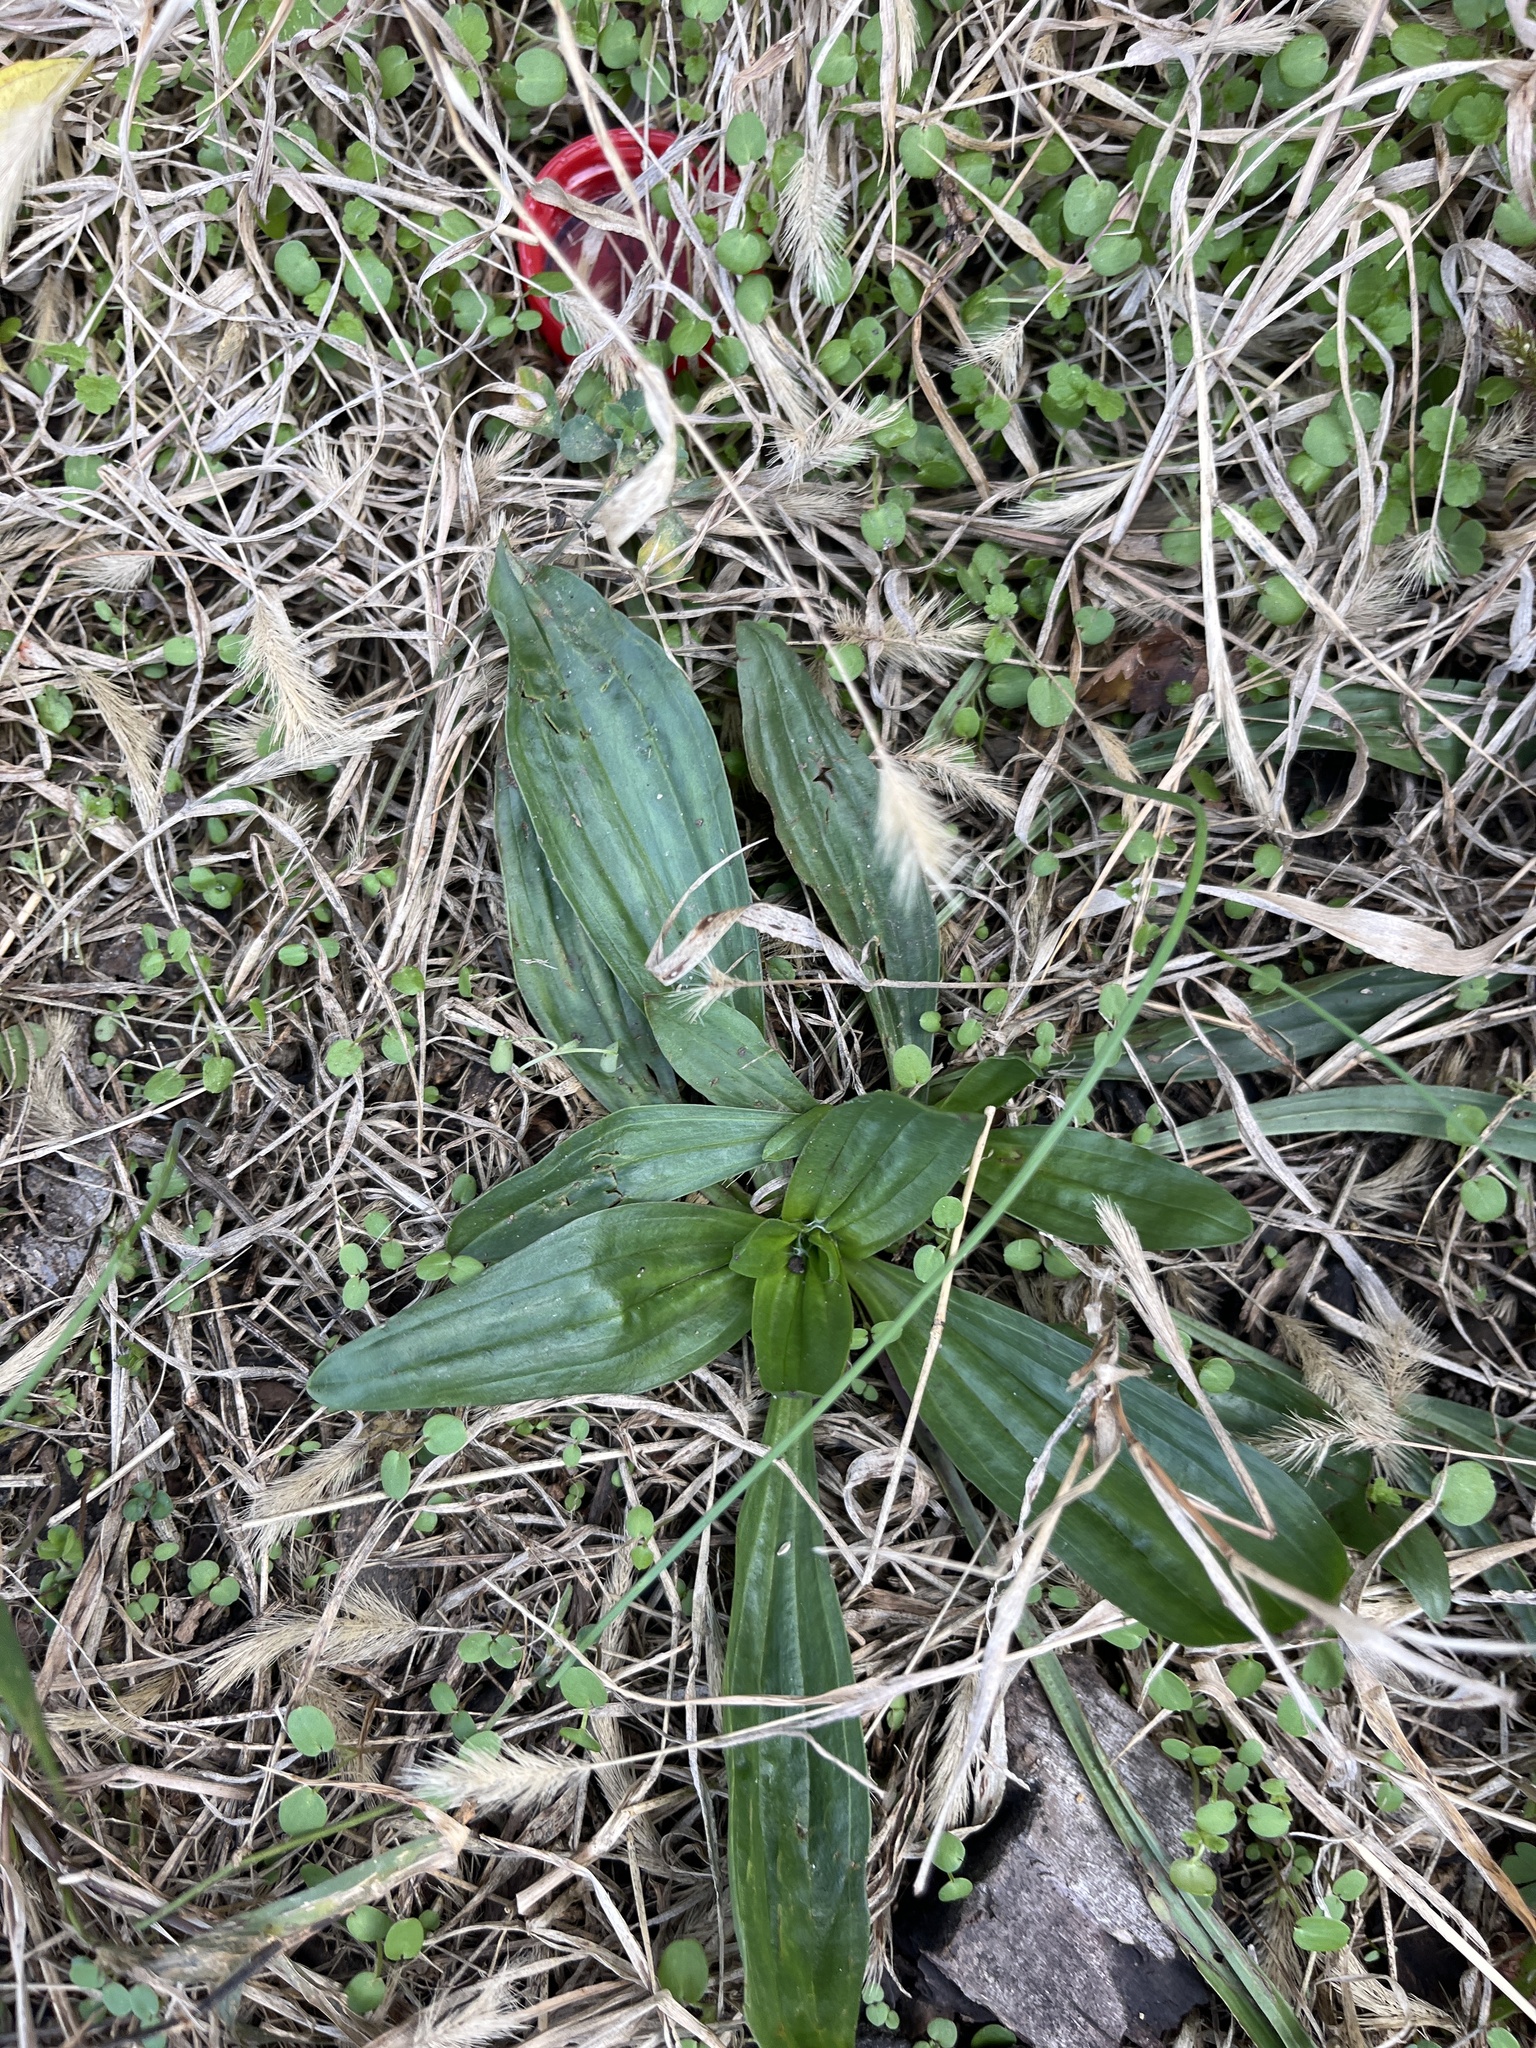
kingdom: Plantae
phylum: Tracheophyta
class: Magnoliopsida
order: Lamiales
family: Plantaginaceae
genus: Plantago
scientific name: Plantago lanceolata
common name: Ribwort plantain
